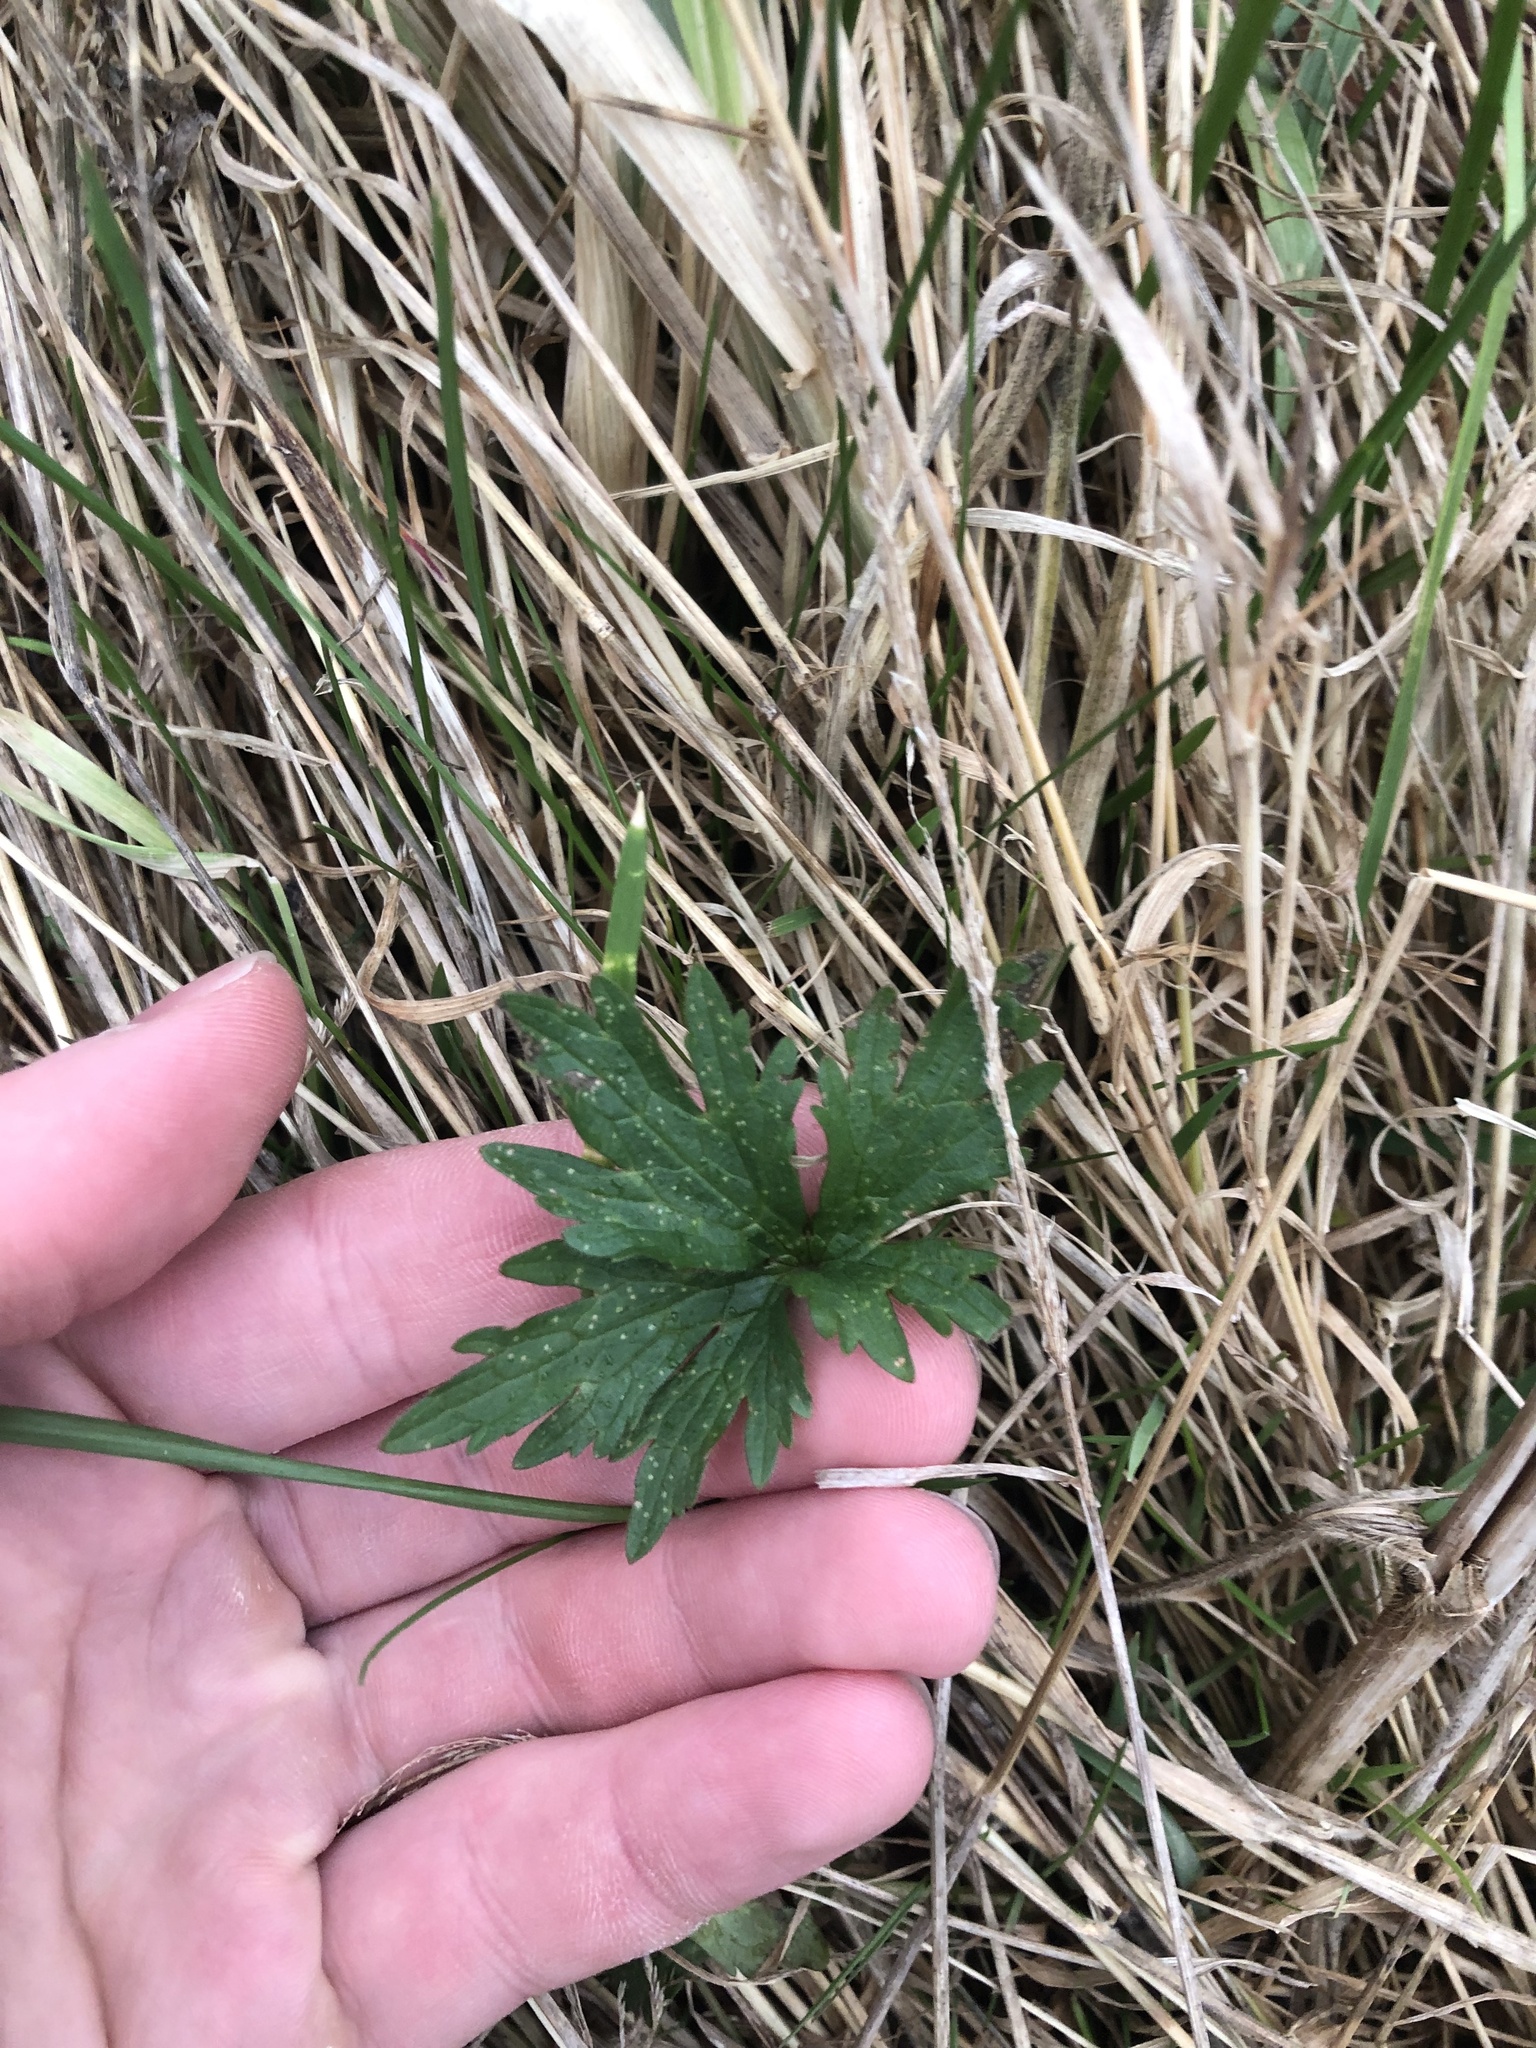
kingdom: Plantae
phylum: Tracheophyta
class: Magnoliopsida
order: Ranunculales
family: Ranunculaceae
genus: Ranunculus
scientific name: Ranunculus acris
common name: Meadow buttercup
